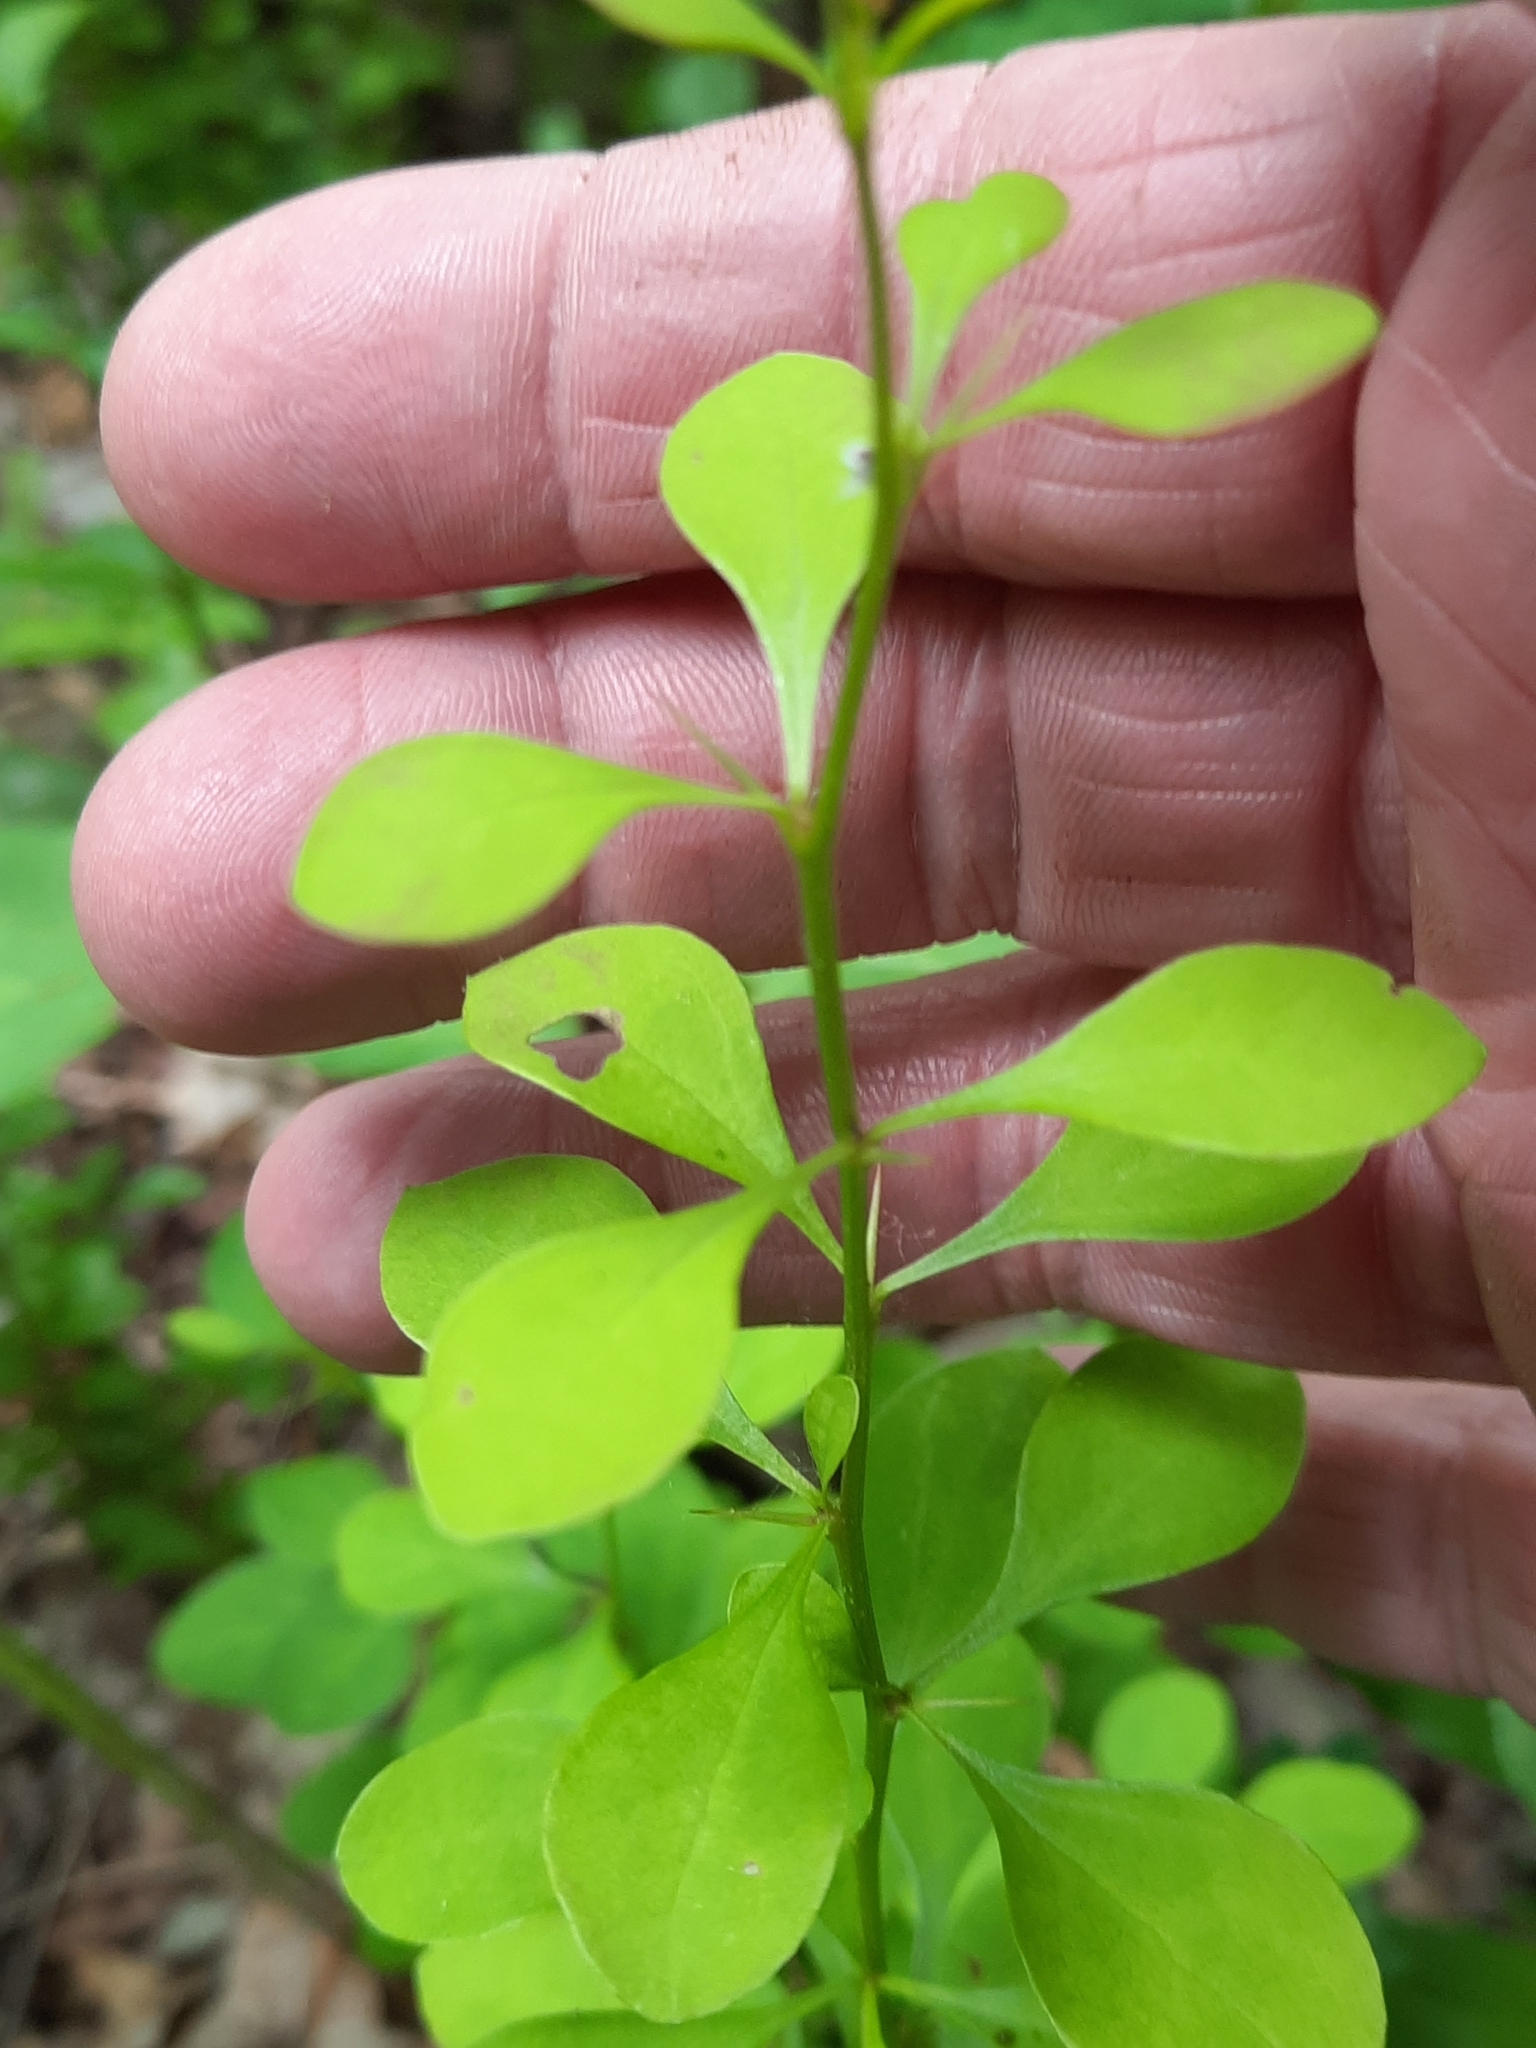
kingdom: Plantae
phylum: Tracheophyta
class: Magnoliopsida
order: Ranunculales
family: Berberidaceae
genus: Berberis
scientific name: Berberis thunbergii
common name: Japanese barberry
